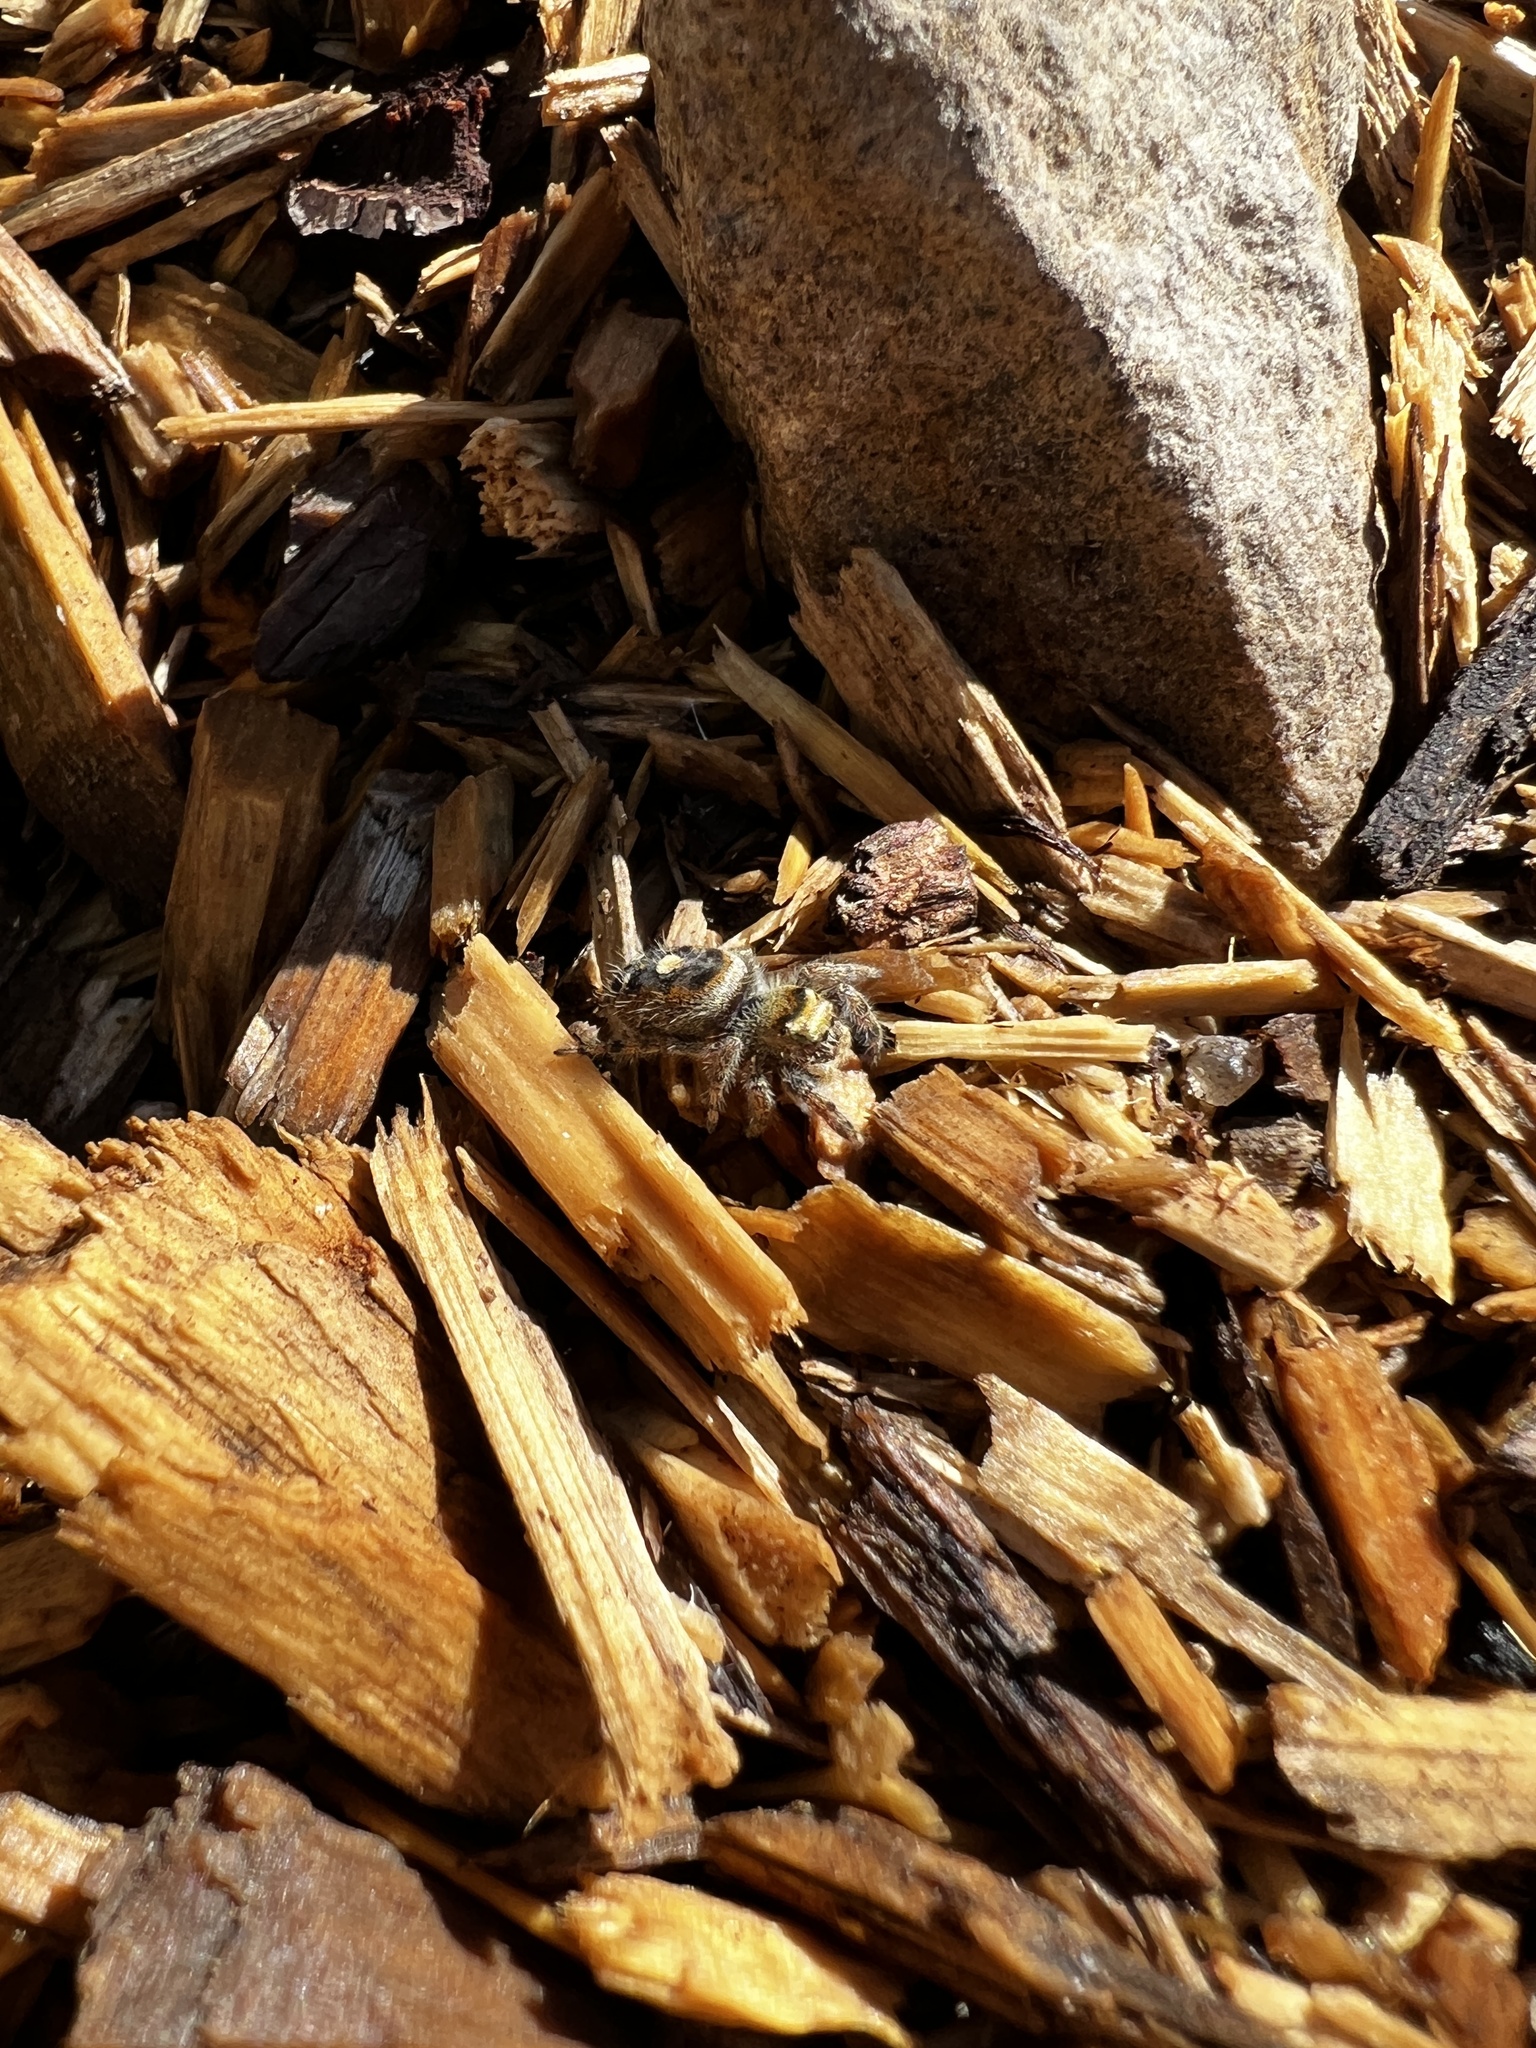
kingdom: Animalia
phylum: Arthropoda
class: Arachnida
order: Araneae
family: Salticidae
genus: Phidippus
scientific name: Phidippus audax
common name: Bold jumper
